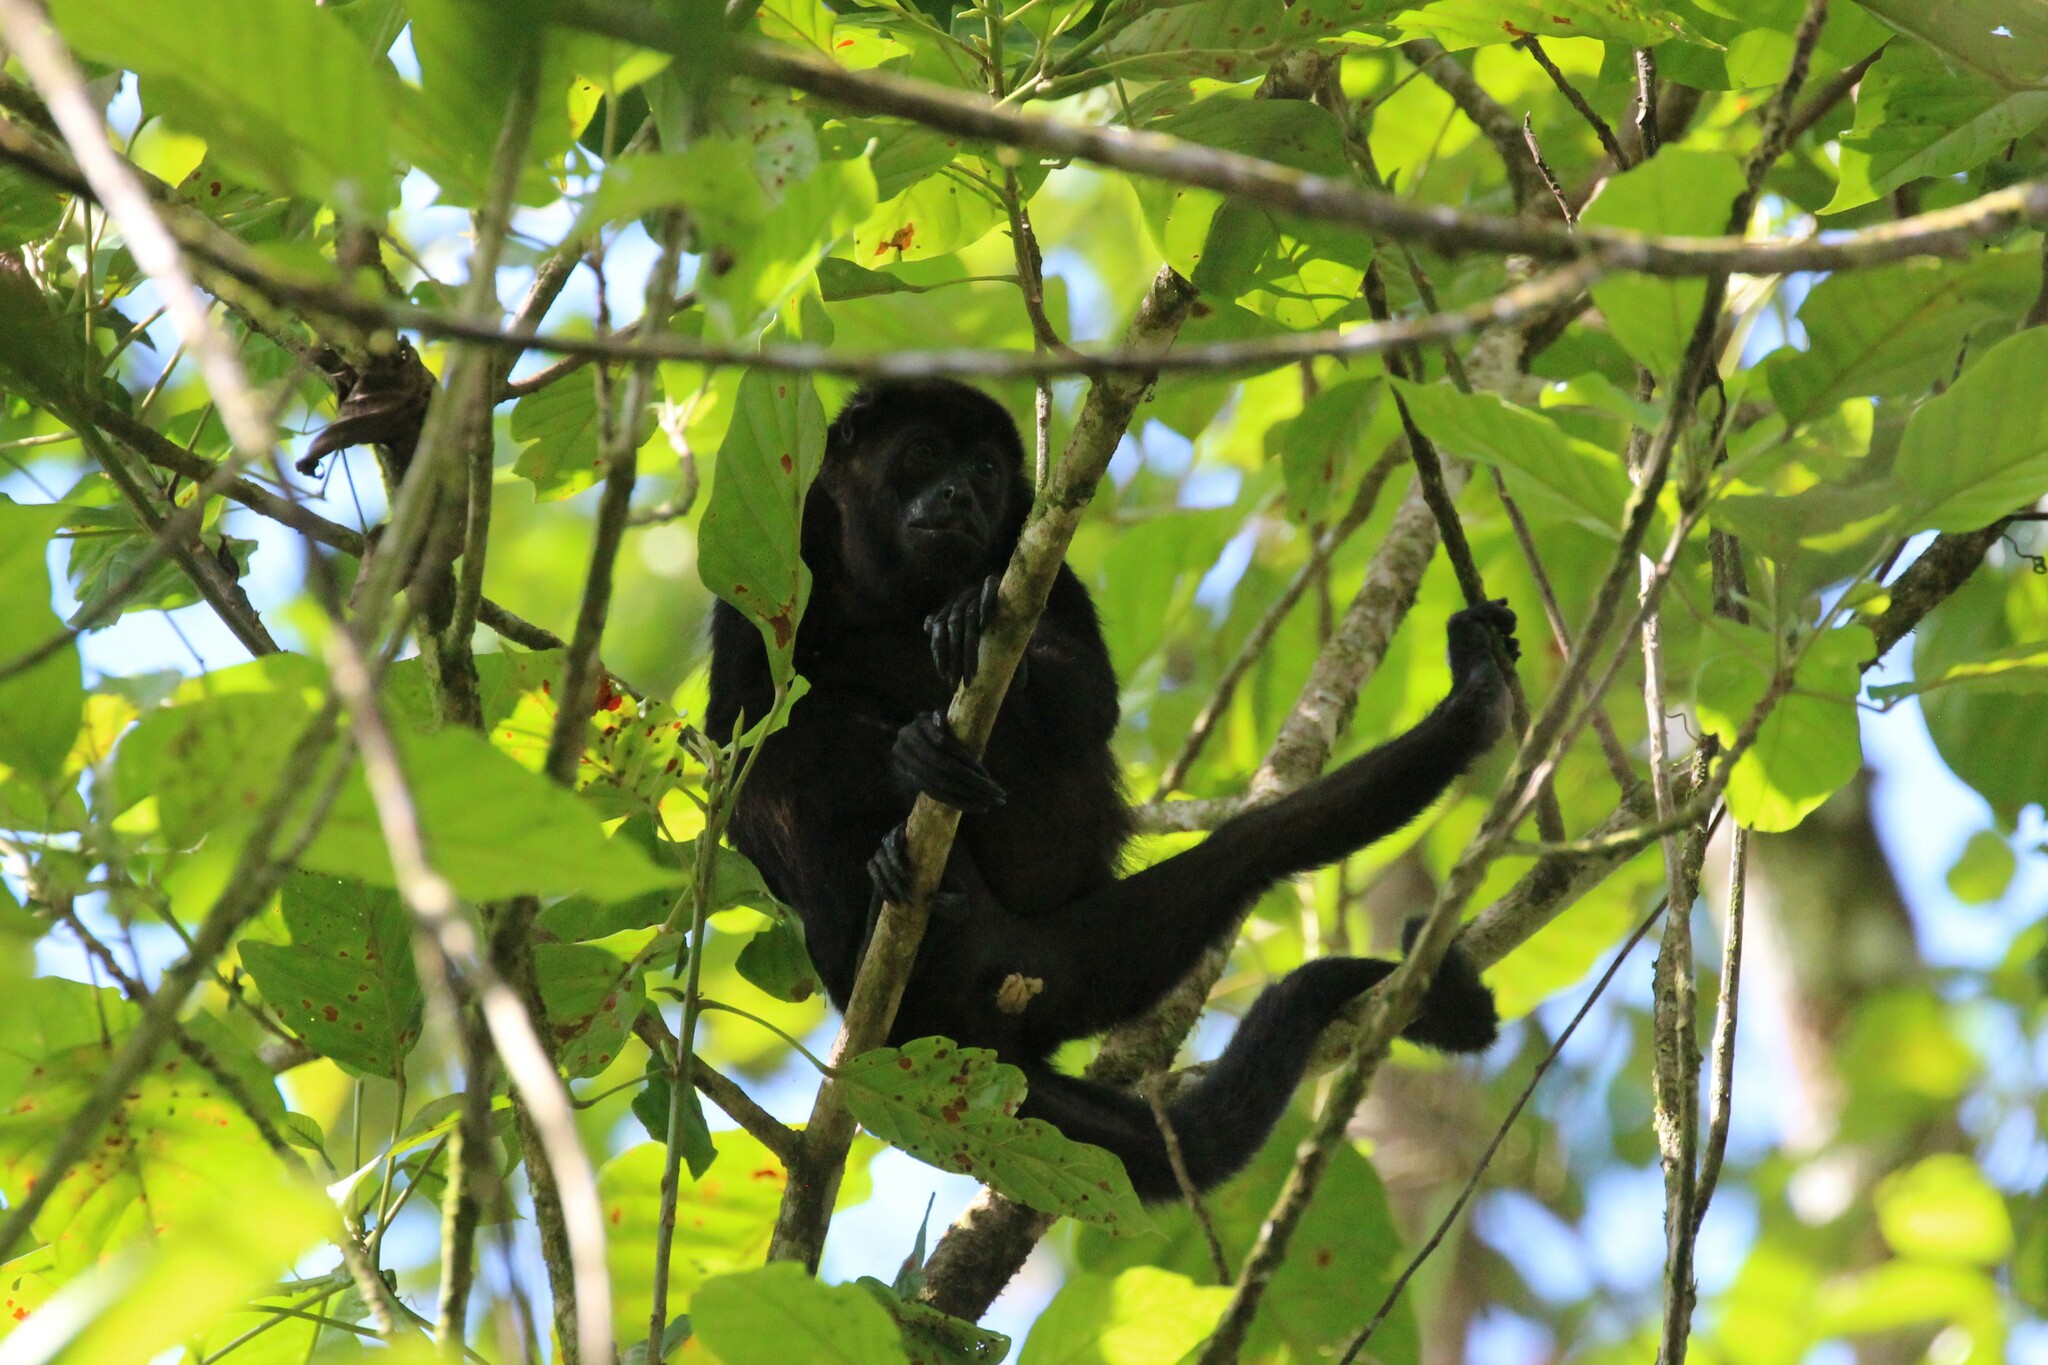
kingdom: Animalia
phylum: Chordata
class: Mammalia
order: Primates
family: Atelidae
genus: Alouatta
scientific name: Alouatta palliata
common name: Mantled howler
